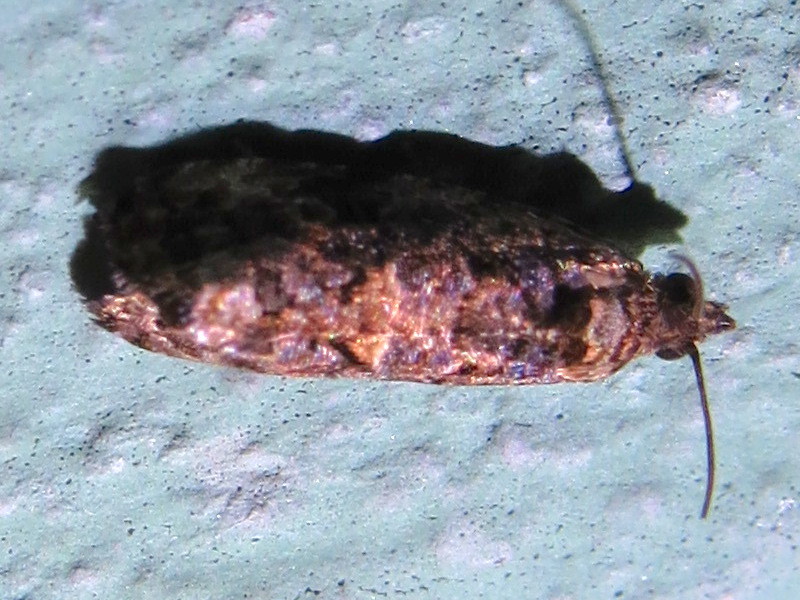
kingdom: Animalia
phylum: Arthropoda
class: Insecta
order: Lepidoptera
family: Tortricidae
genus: Endothenia
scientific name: Endothenia hebesana
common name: Verbena bud moth
